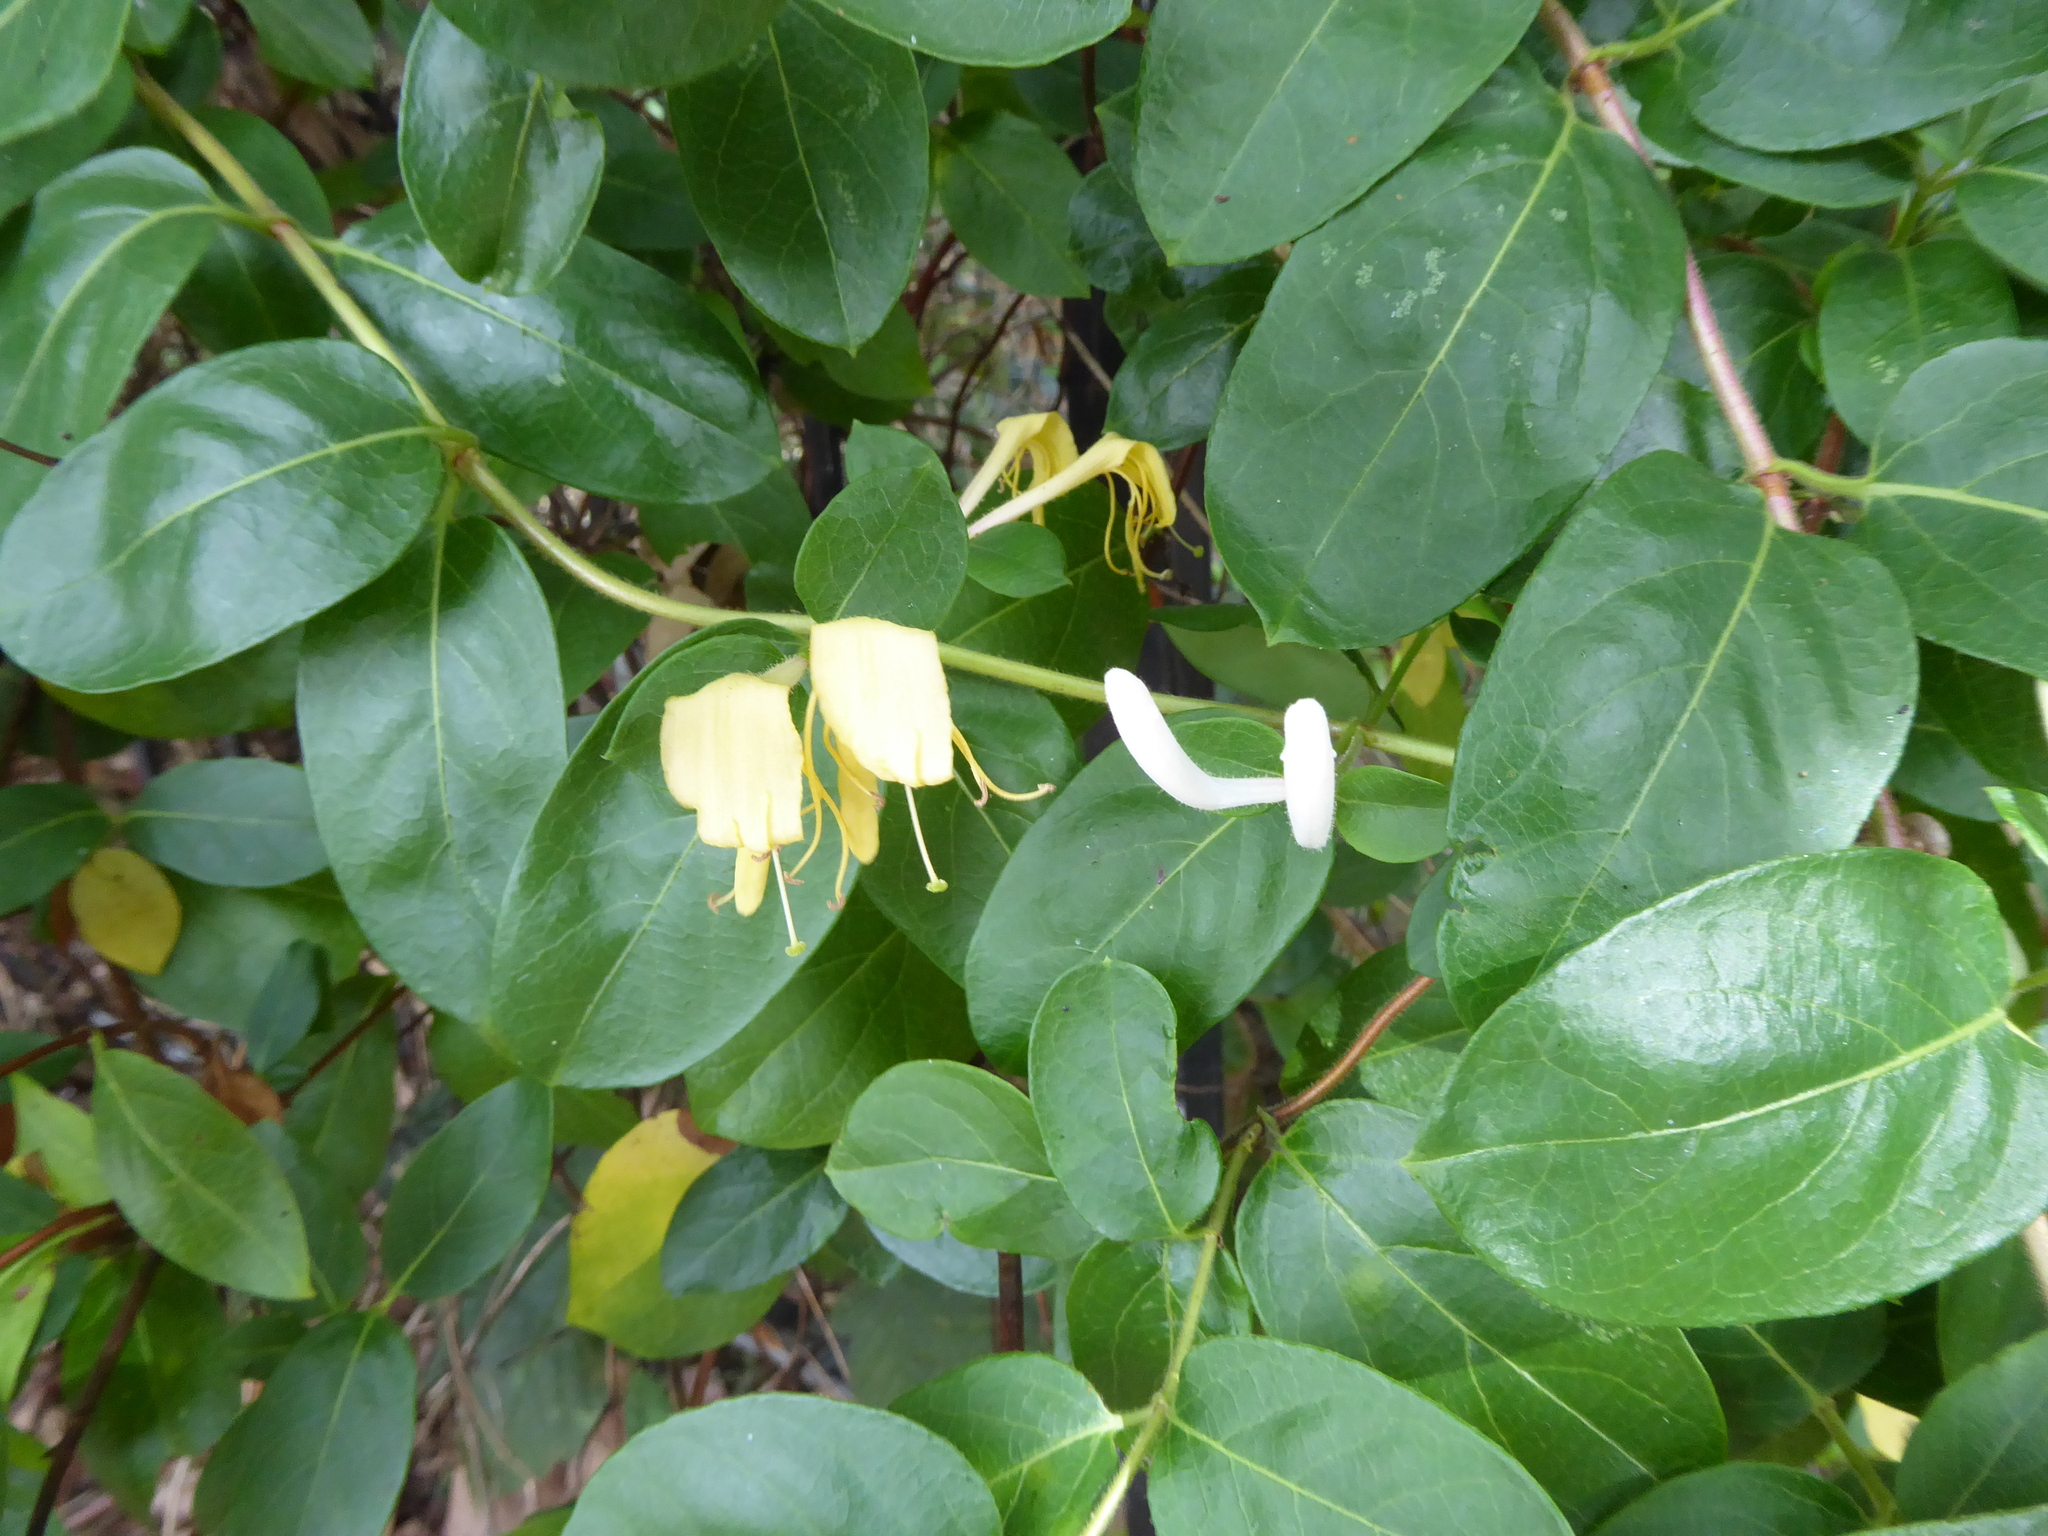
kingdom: Plantae
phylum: Tracheophyta
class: Magnoliopsida
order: Dipsacales
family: Caprifoliaceae
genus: Lonicera
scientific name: Lonicera japonica
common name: Japanese honeysuckle
